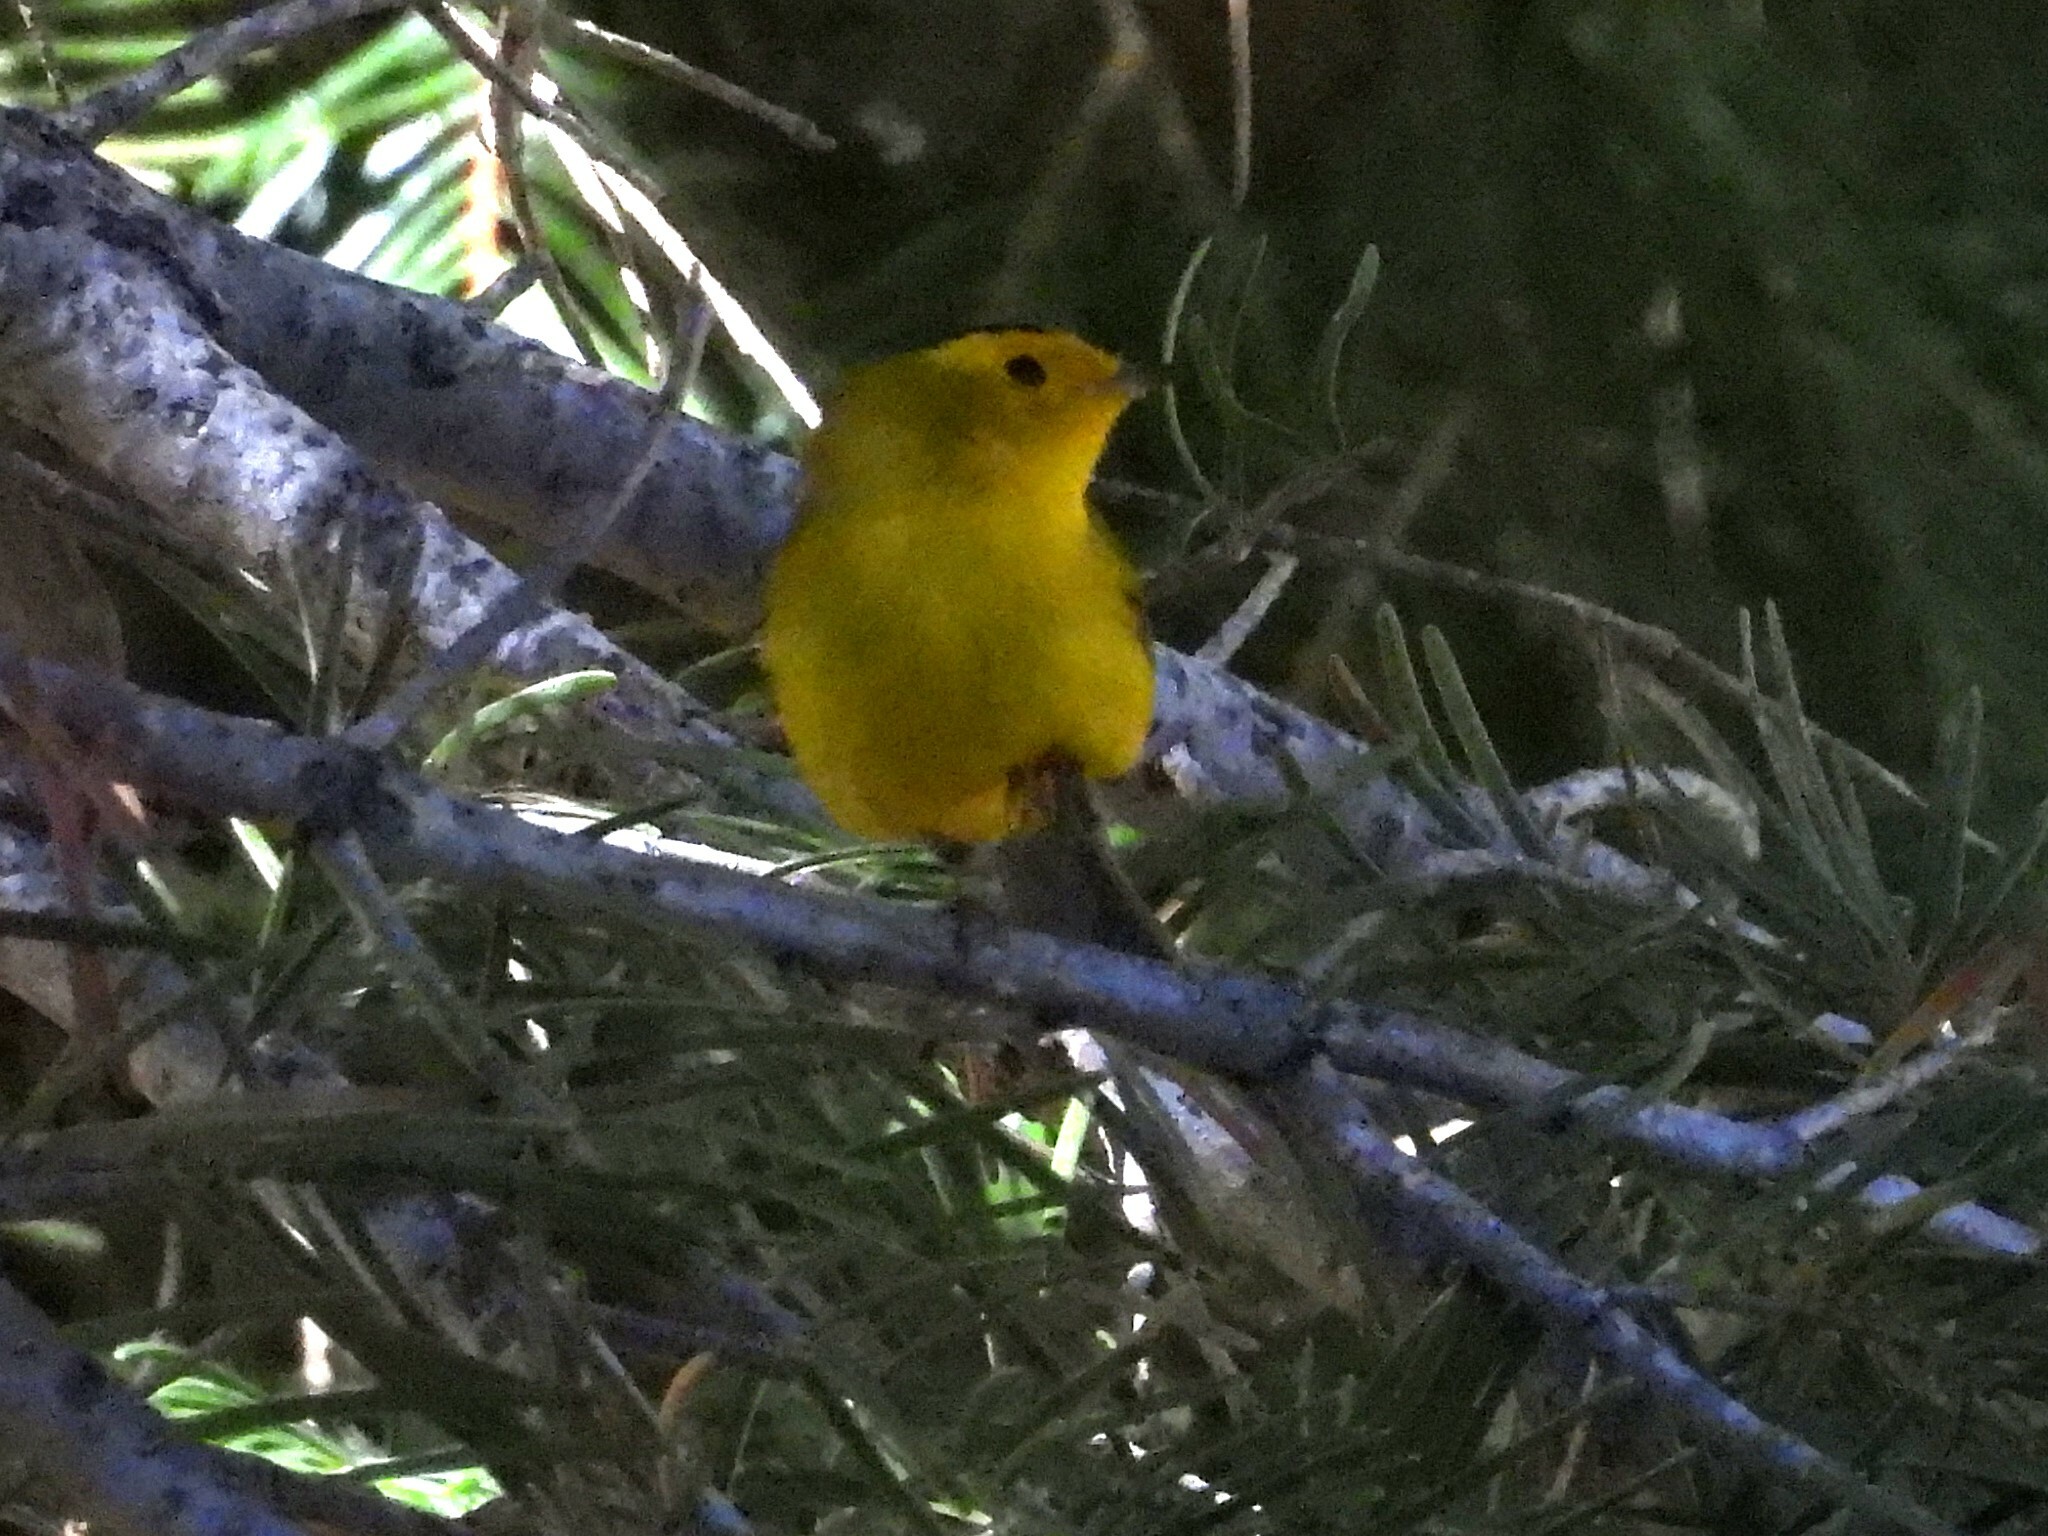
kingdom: Animalia
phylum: Chordata
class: Aves
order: Passeriformes
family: Parulidae
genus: Cardellina
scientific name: Cardellina pusilla
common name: Wilson's warbler
